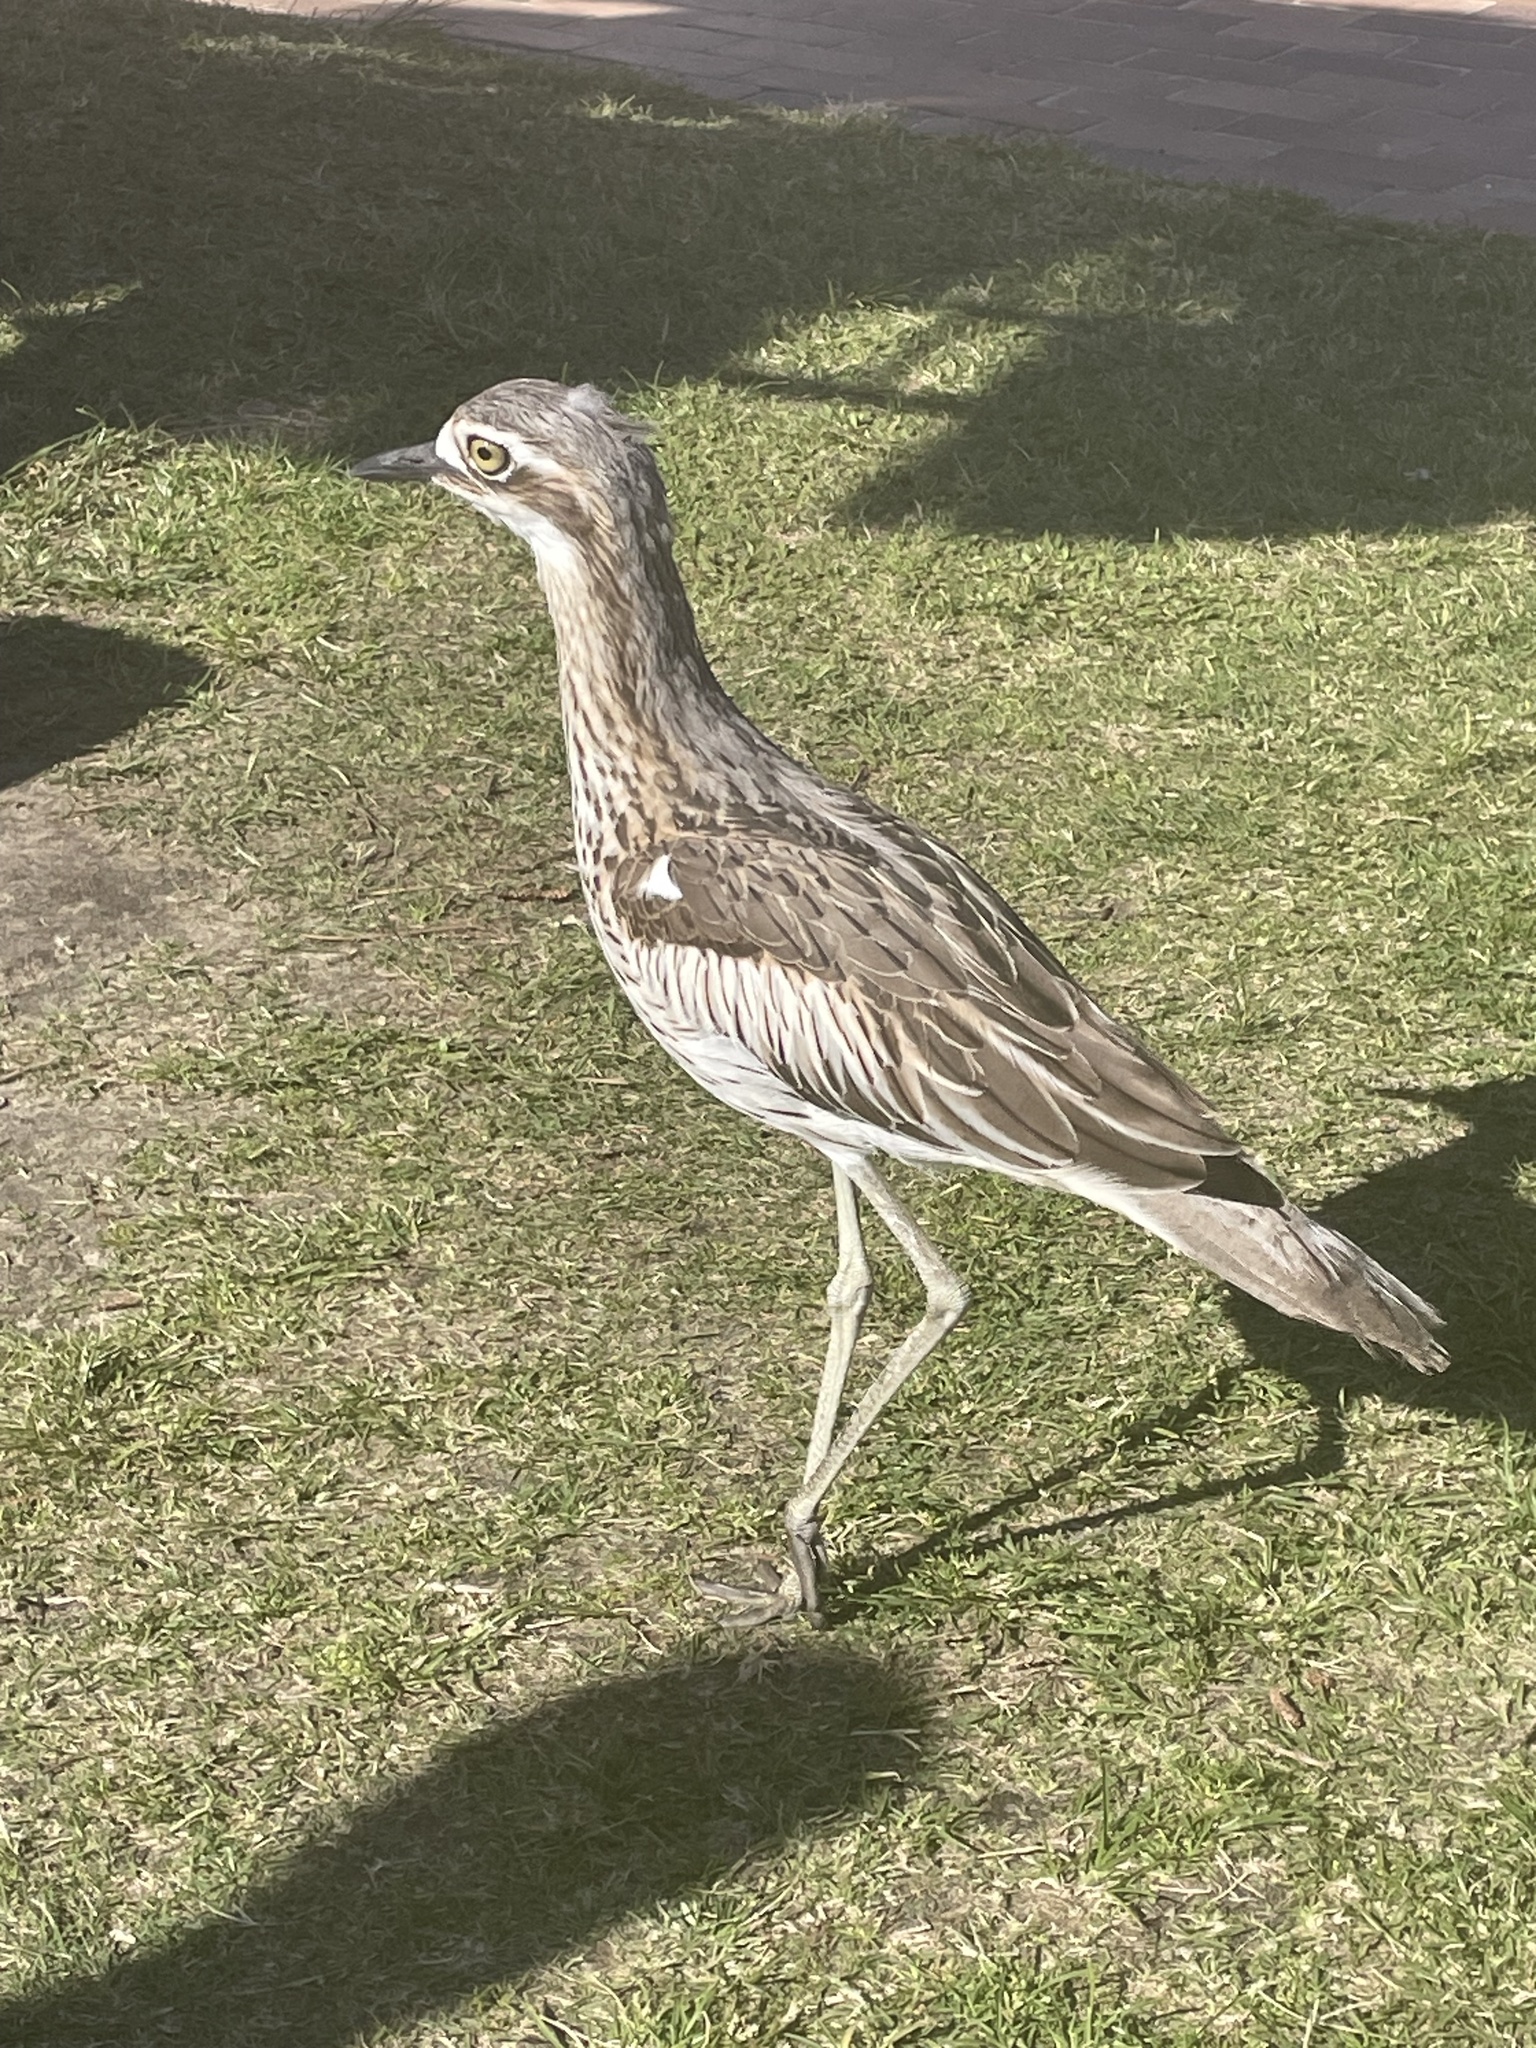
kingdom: Animalia
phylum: Chordata
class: Aves
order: Charadriiformes
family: Burhinidae
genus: Burhinus
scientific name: Burhinus grallarius
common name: Bush stone-curlew
